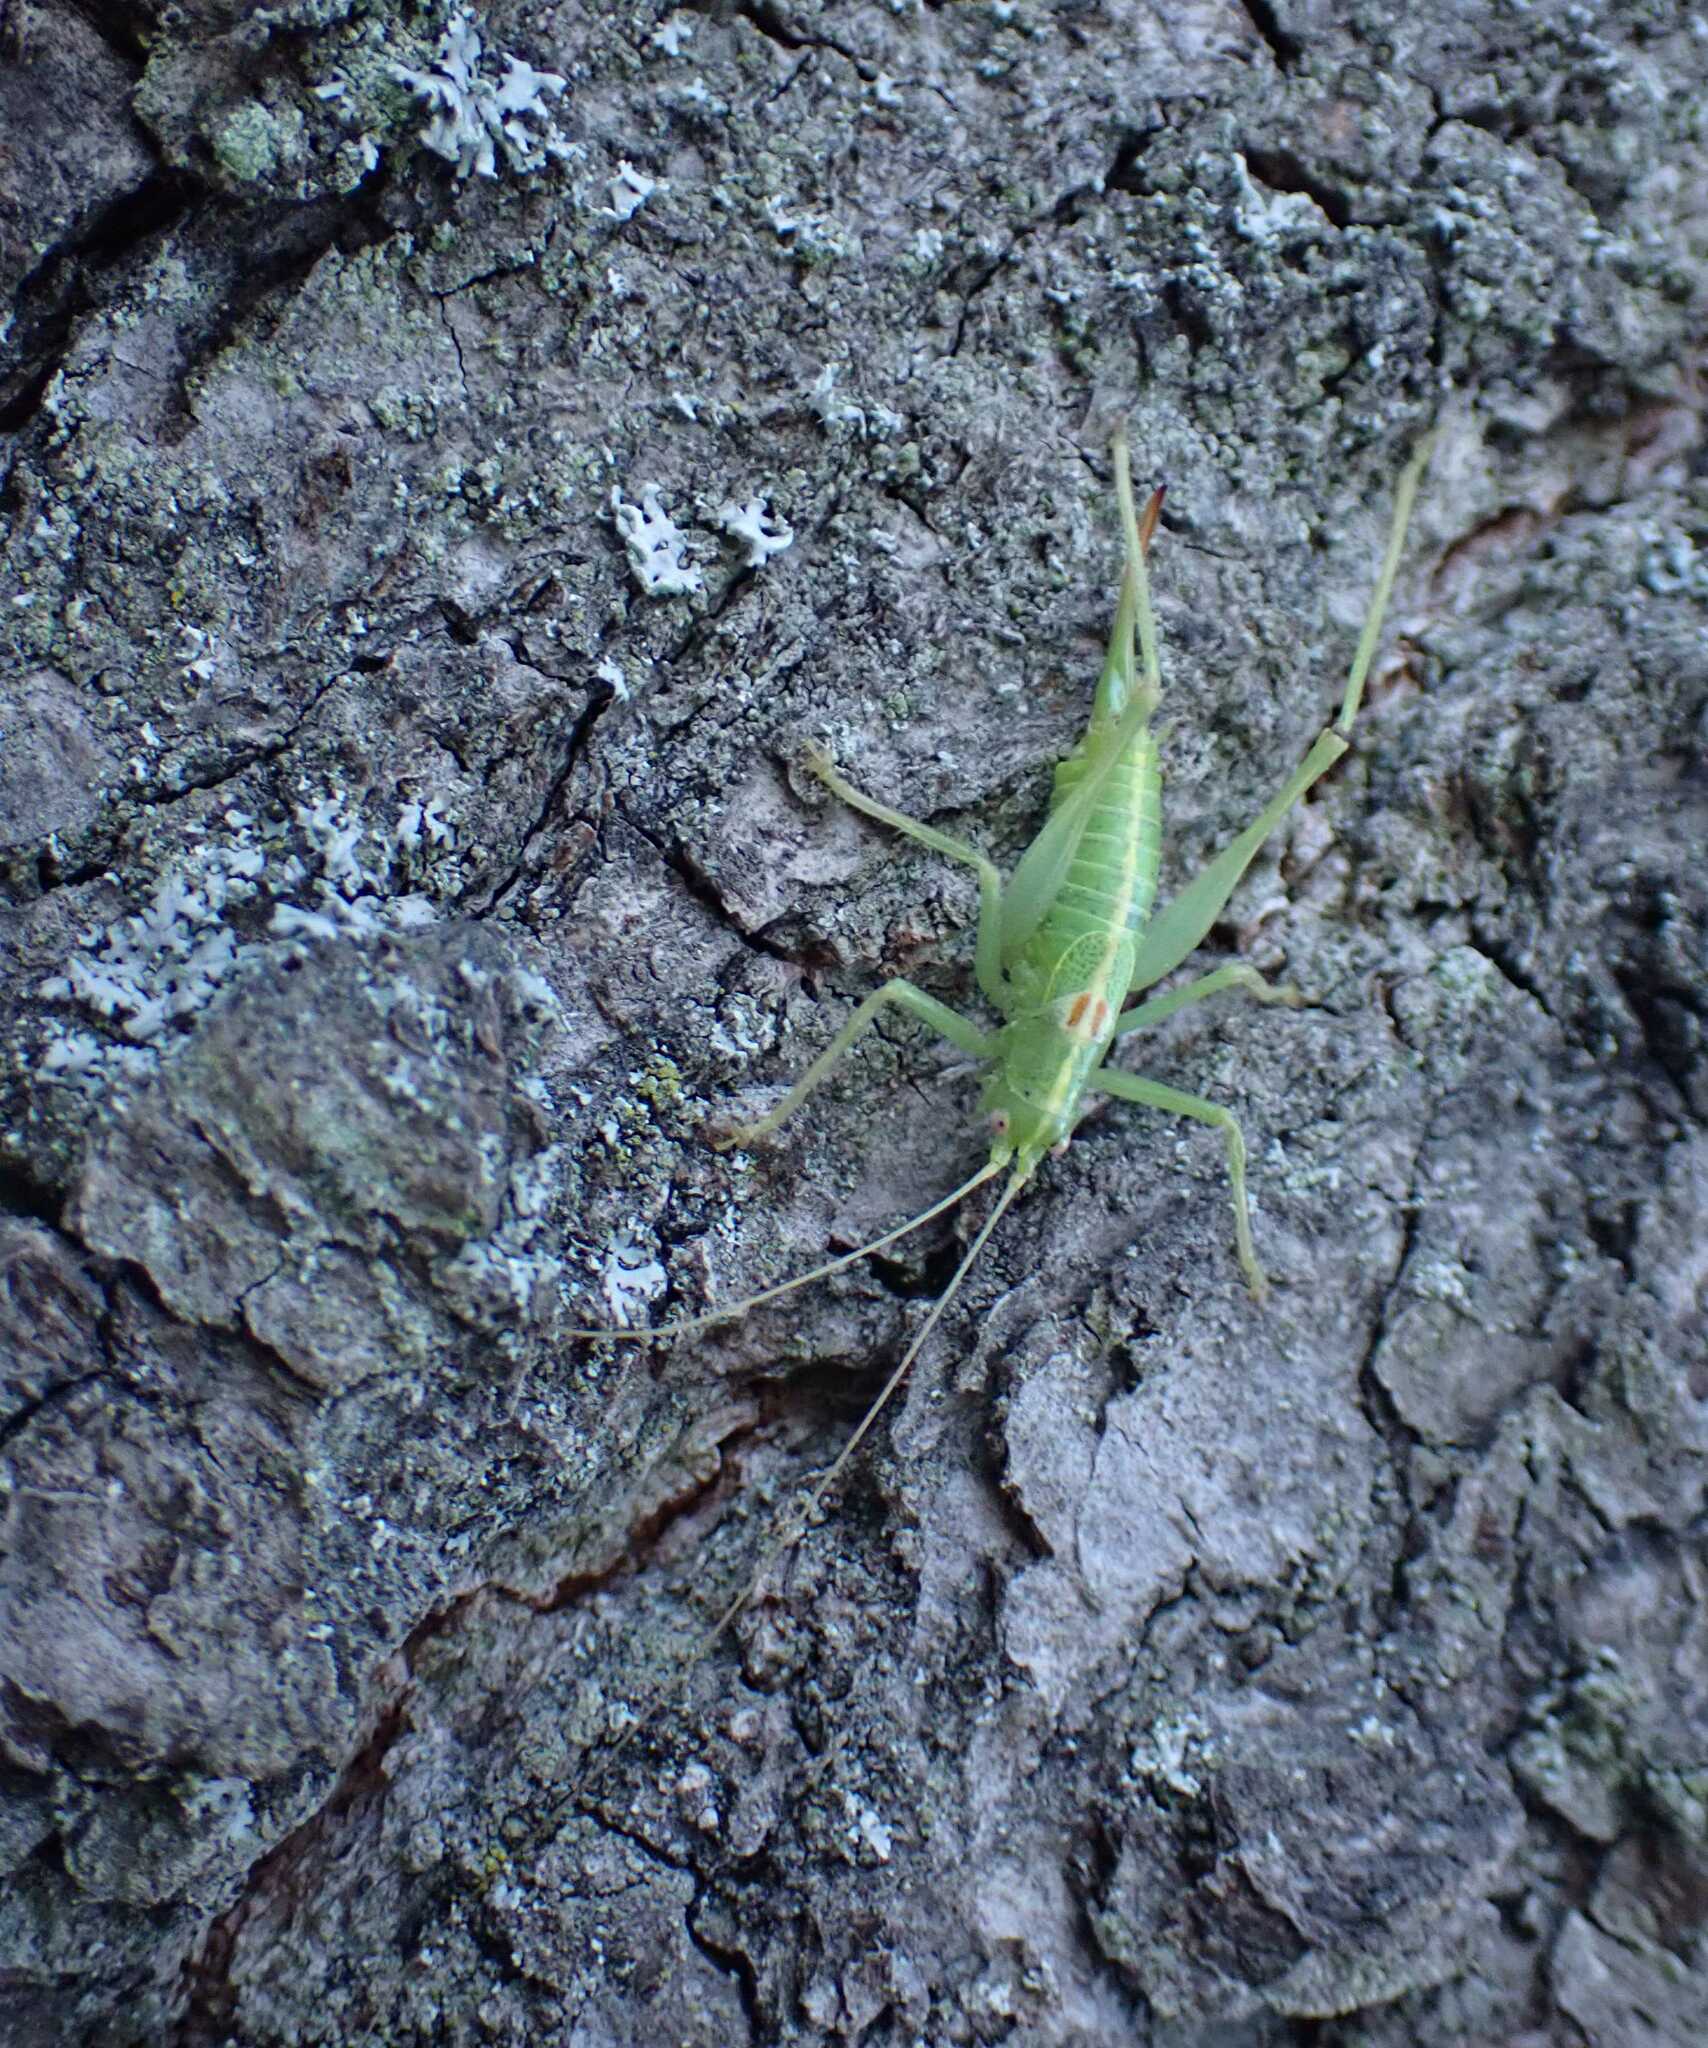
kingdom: Animalia
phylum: Arthropoda
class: Insecta
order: Orthoptera
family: Tettigoniidae
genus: Meconema
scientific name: Meconema meridionale
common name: Southern oak bush-cricket
